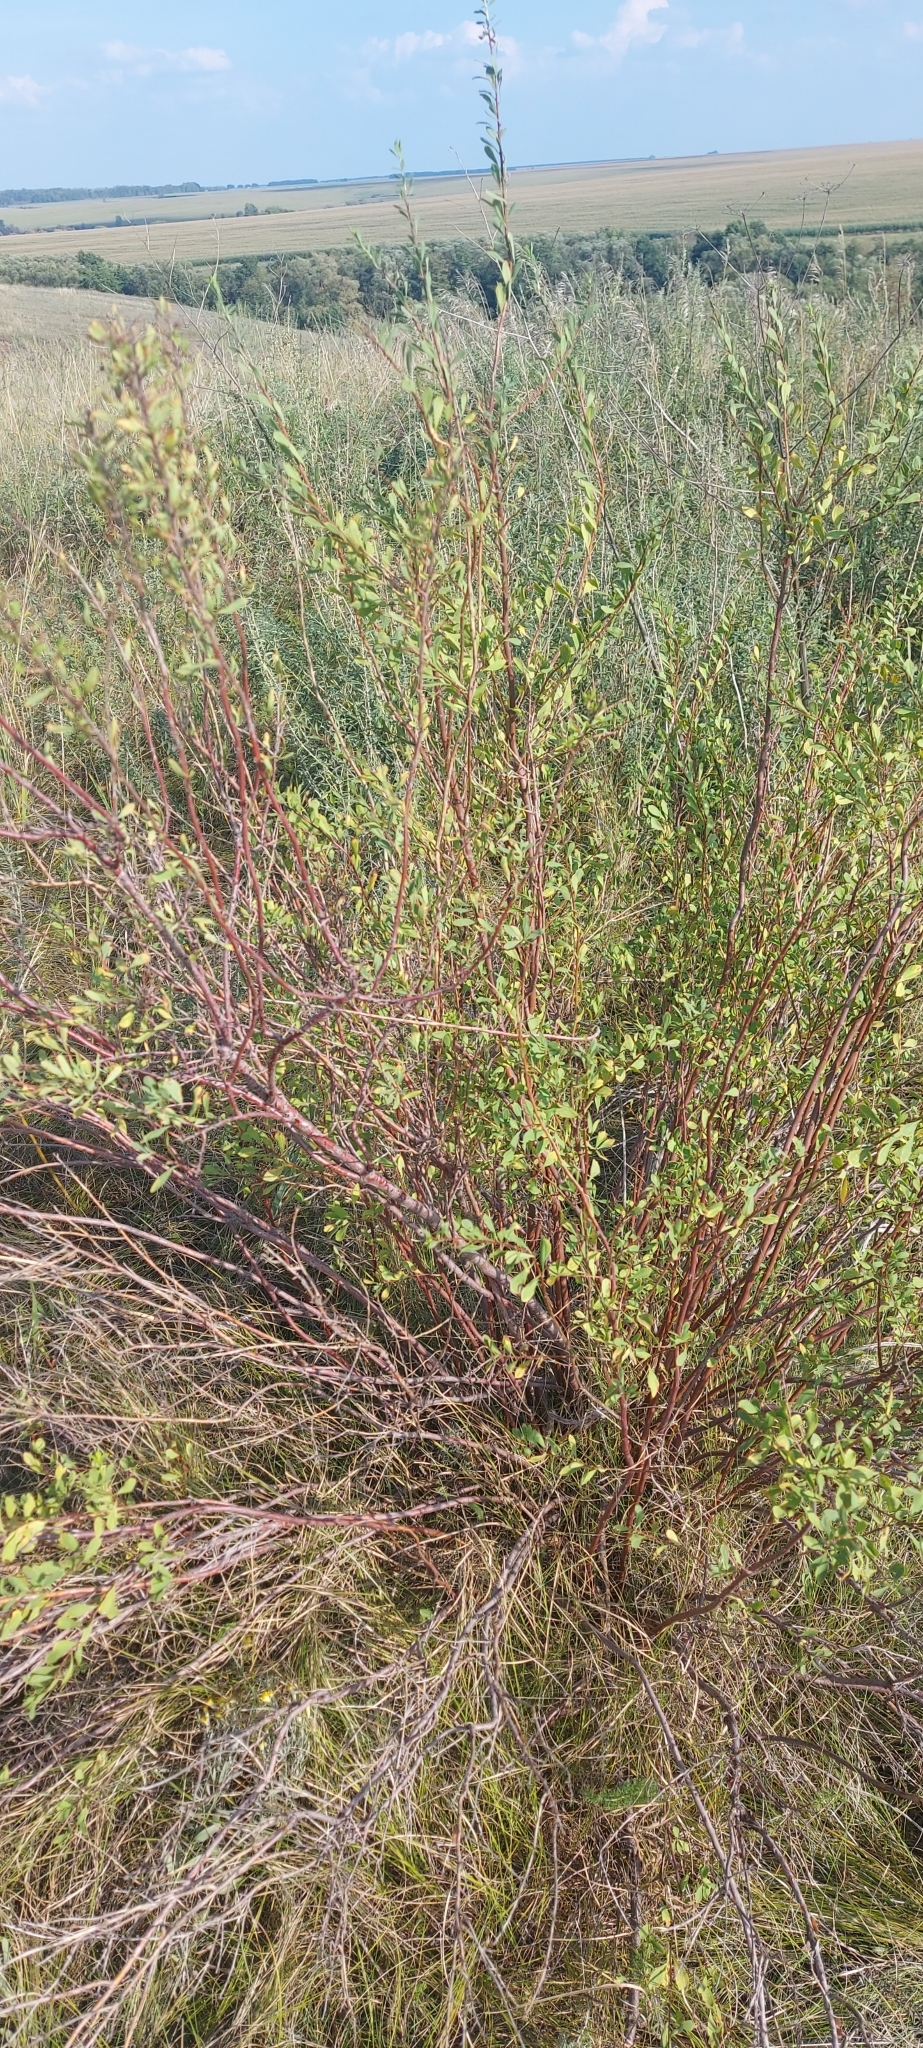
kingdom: Plantae
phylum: Tracheophyta
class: Magnoliopsida
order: Rosales
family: Rosaceae
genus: Spiraea
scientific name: Spiraea crenata
